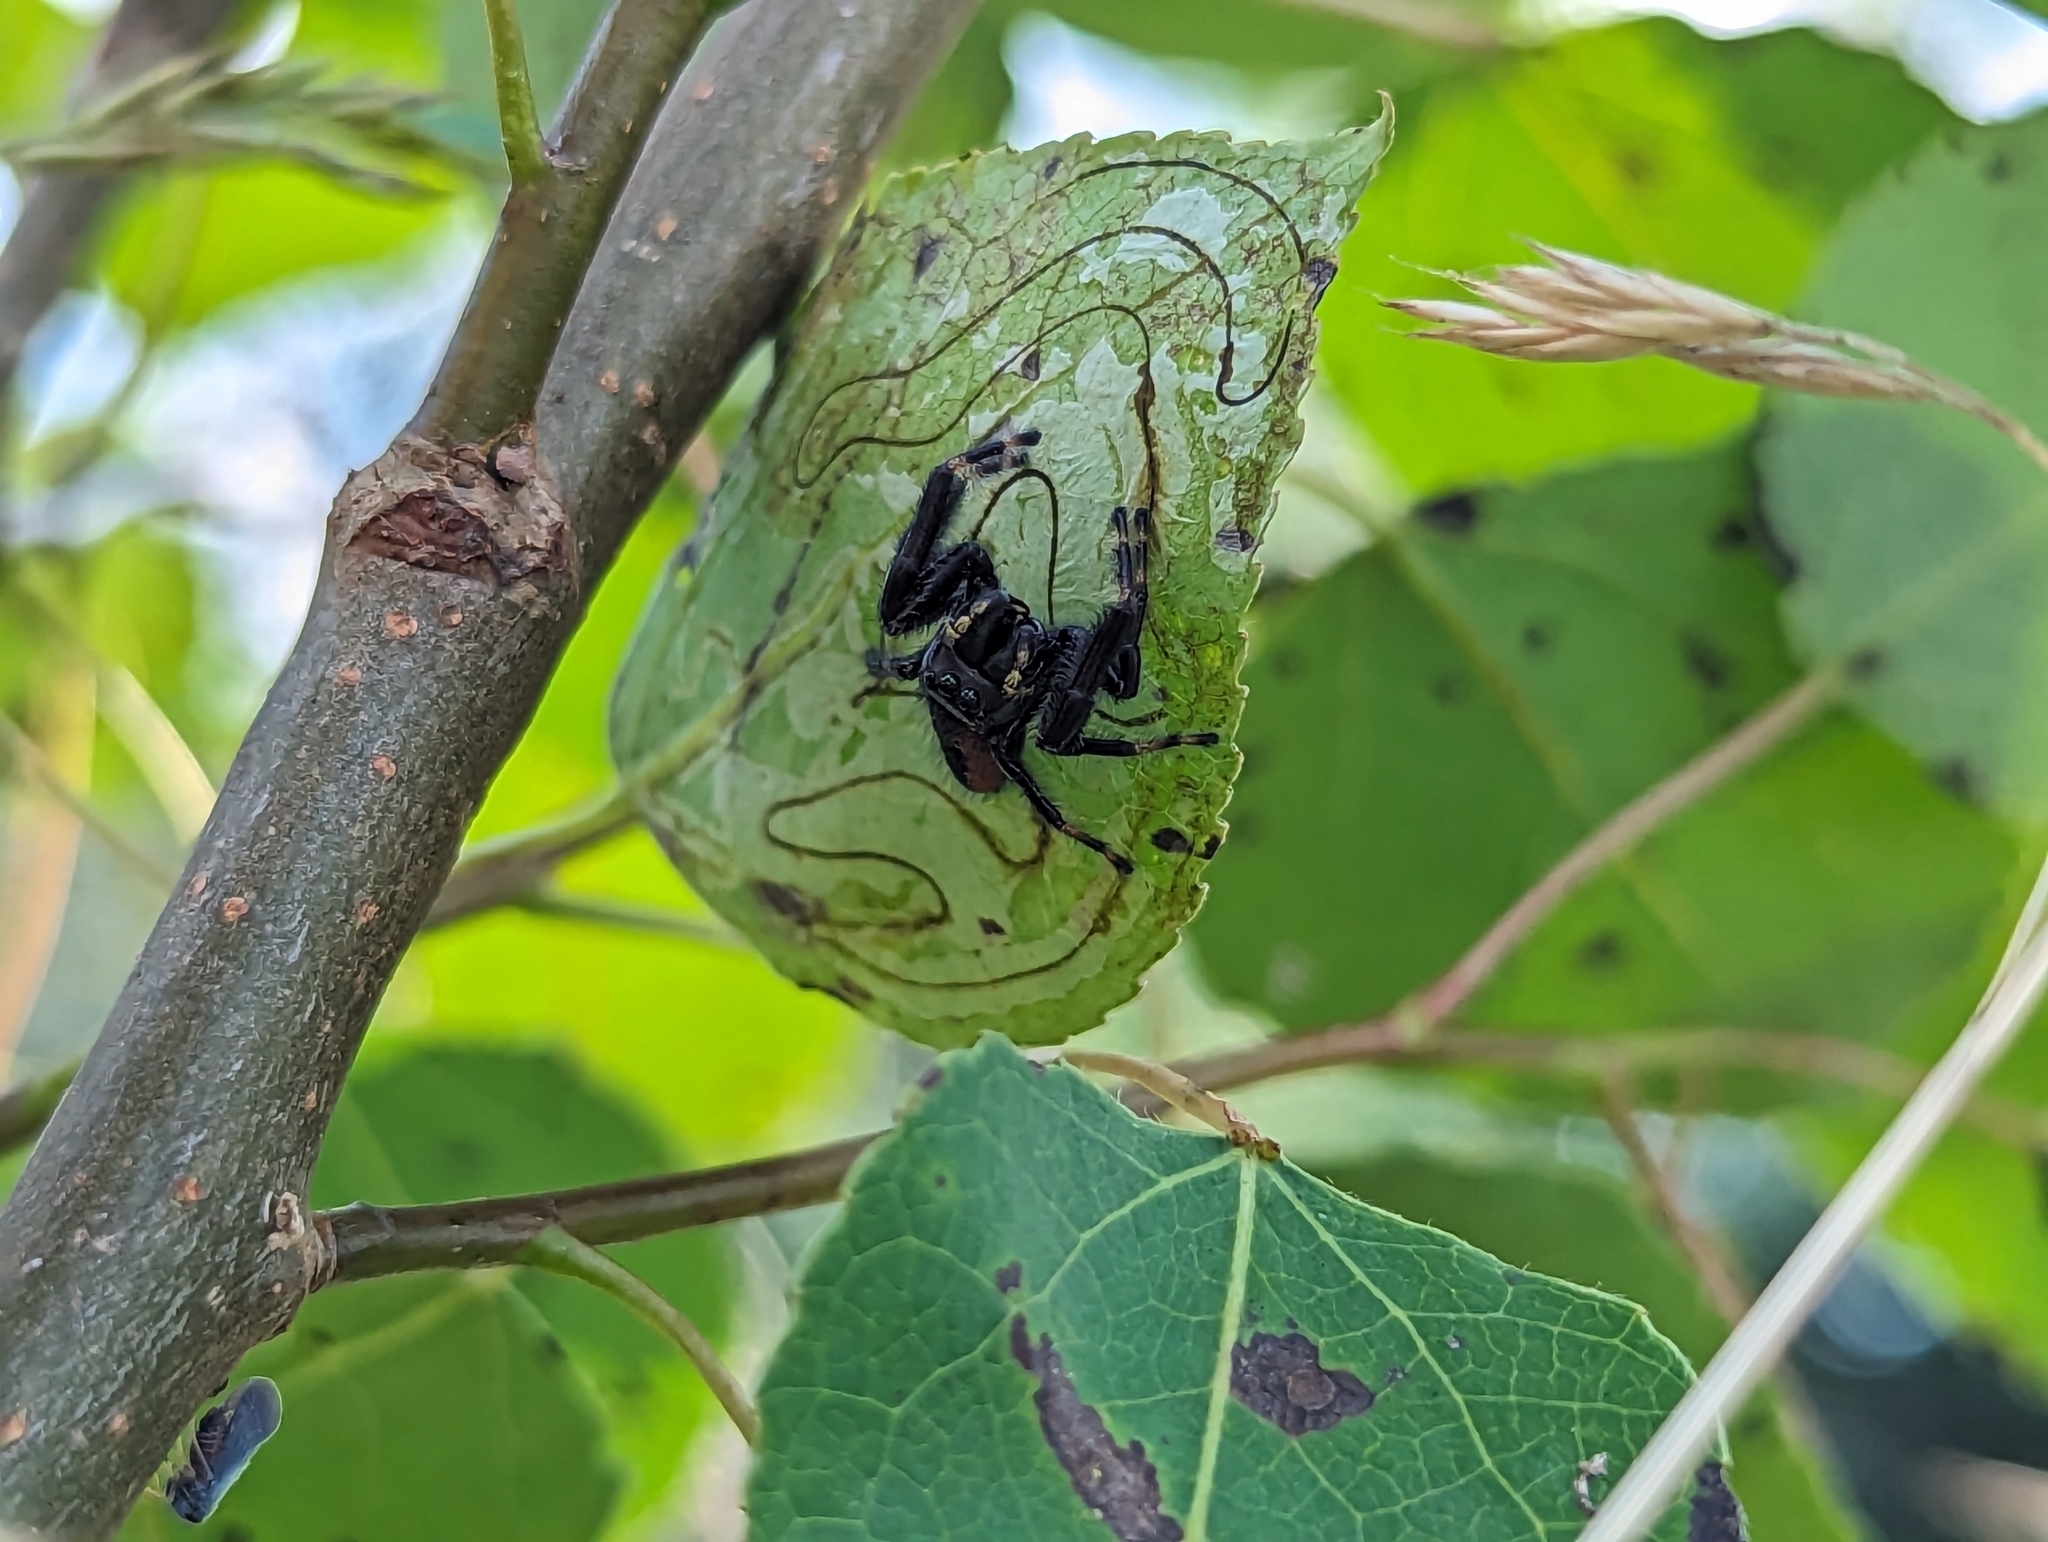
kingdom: Animalia
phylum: Arthropoda
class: Arachnida
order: Araneae
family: Salticidae
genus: Phidippus
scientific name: Phidippus clarus
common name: Brilliant jumping spider
